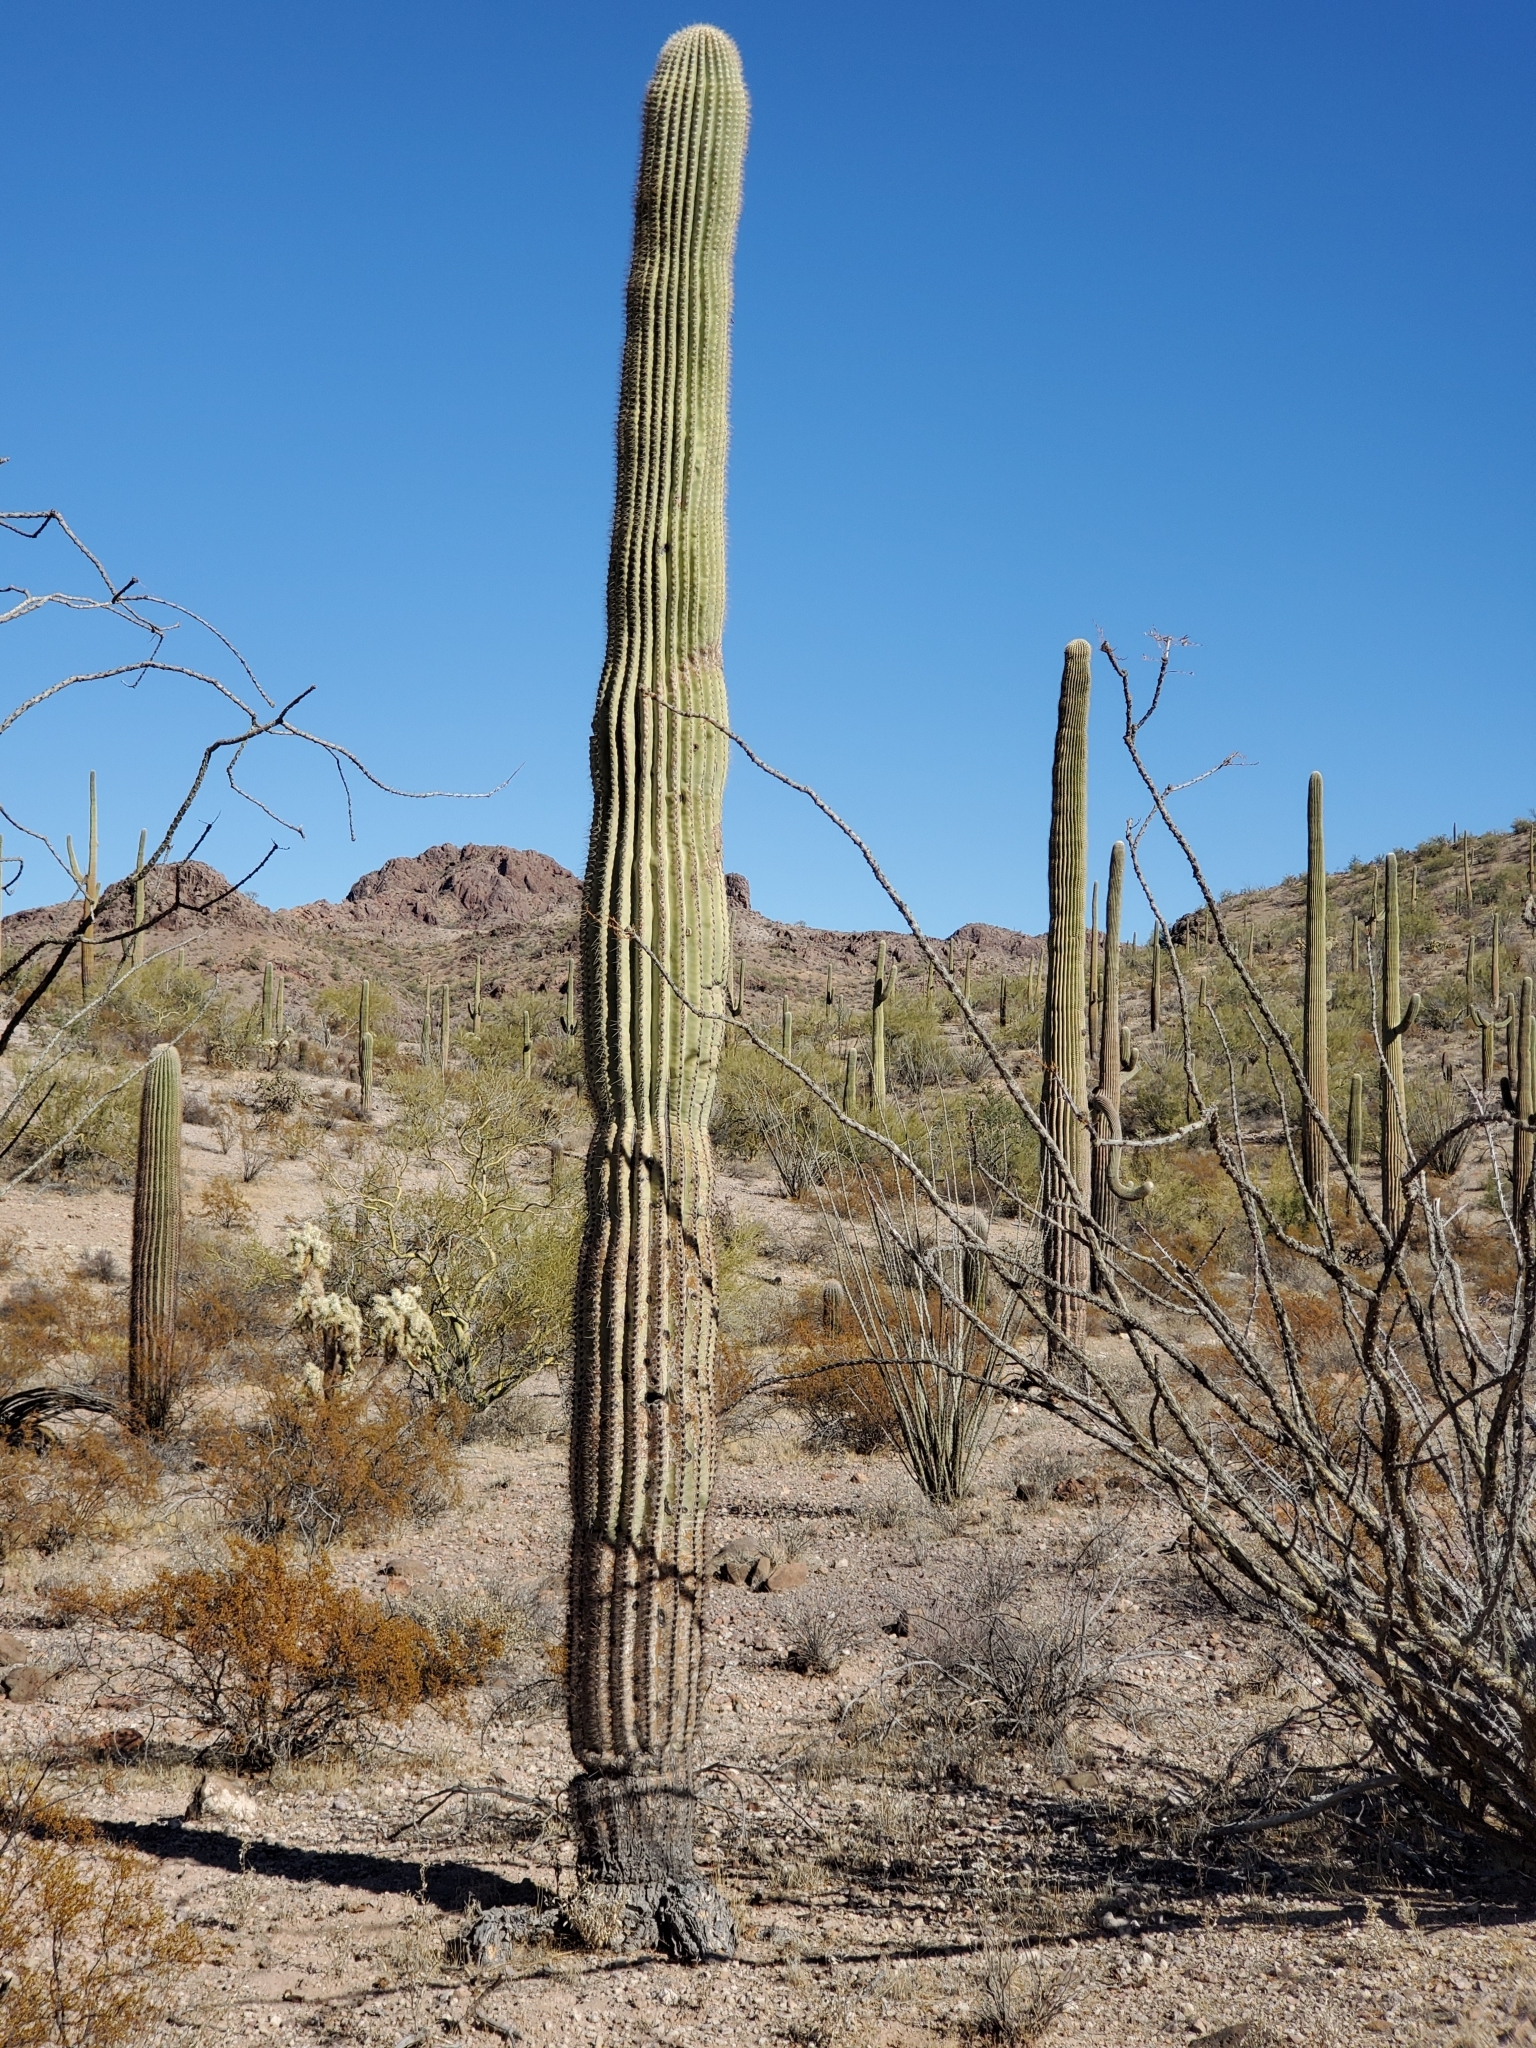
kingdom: Plantae
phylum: Tracheophyta
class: Magnoliopsida
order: Caryophyllales
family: Cactaceae
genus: Carnegiea
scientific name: Carnegiea gigantea
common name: Saguaro
